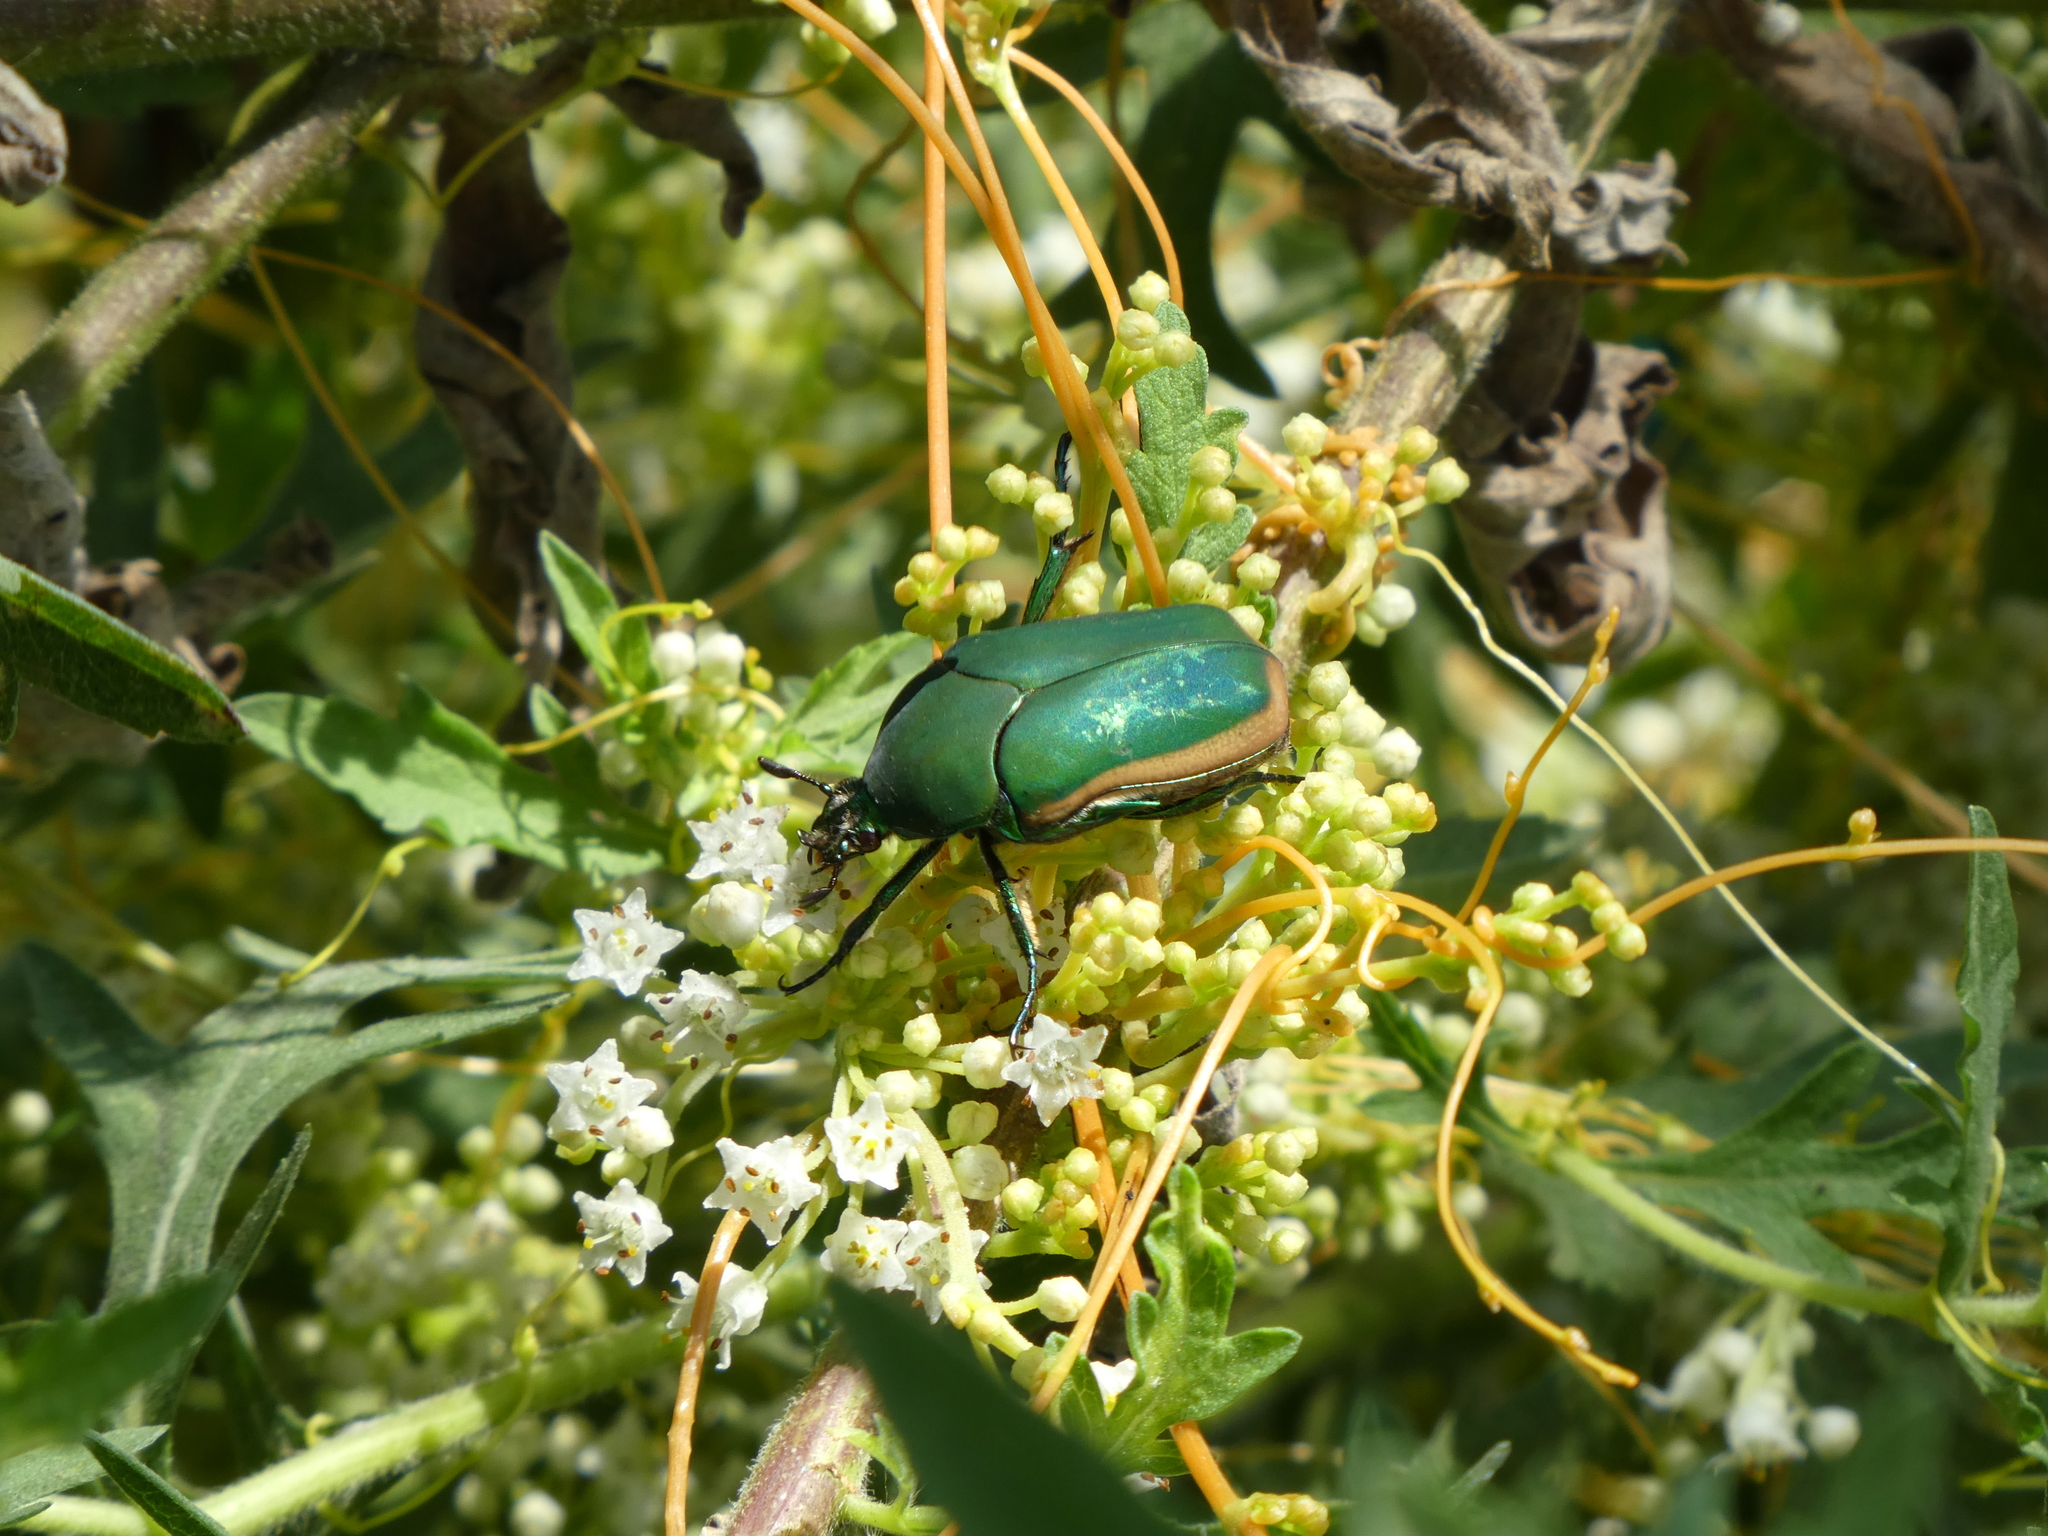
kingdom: Animalia
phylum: Arthropoda
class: Insecta
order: Coleoptera
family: Scarabaeidae
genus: Cotinis
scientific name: Cotinis mutabilis
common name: Figeater beetle
